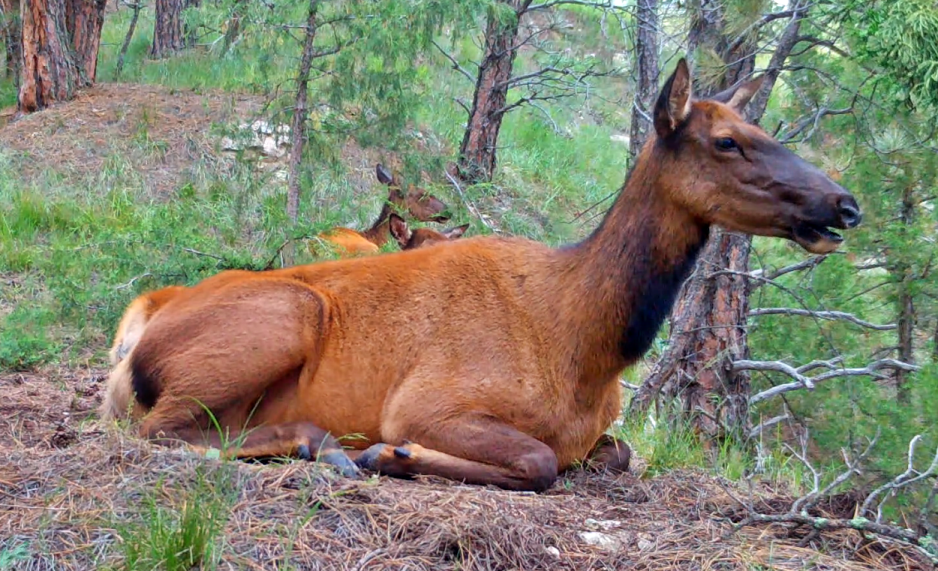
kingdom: Animalia
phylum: Chordata
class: Mammalia
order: Artiodactyla
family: Cervidae
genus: Cervus
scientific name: Cervus elaphus
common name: Red deer
